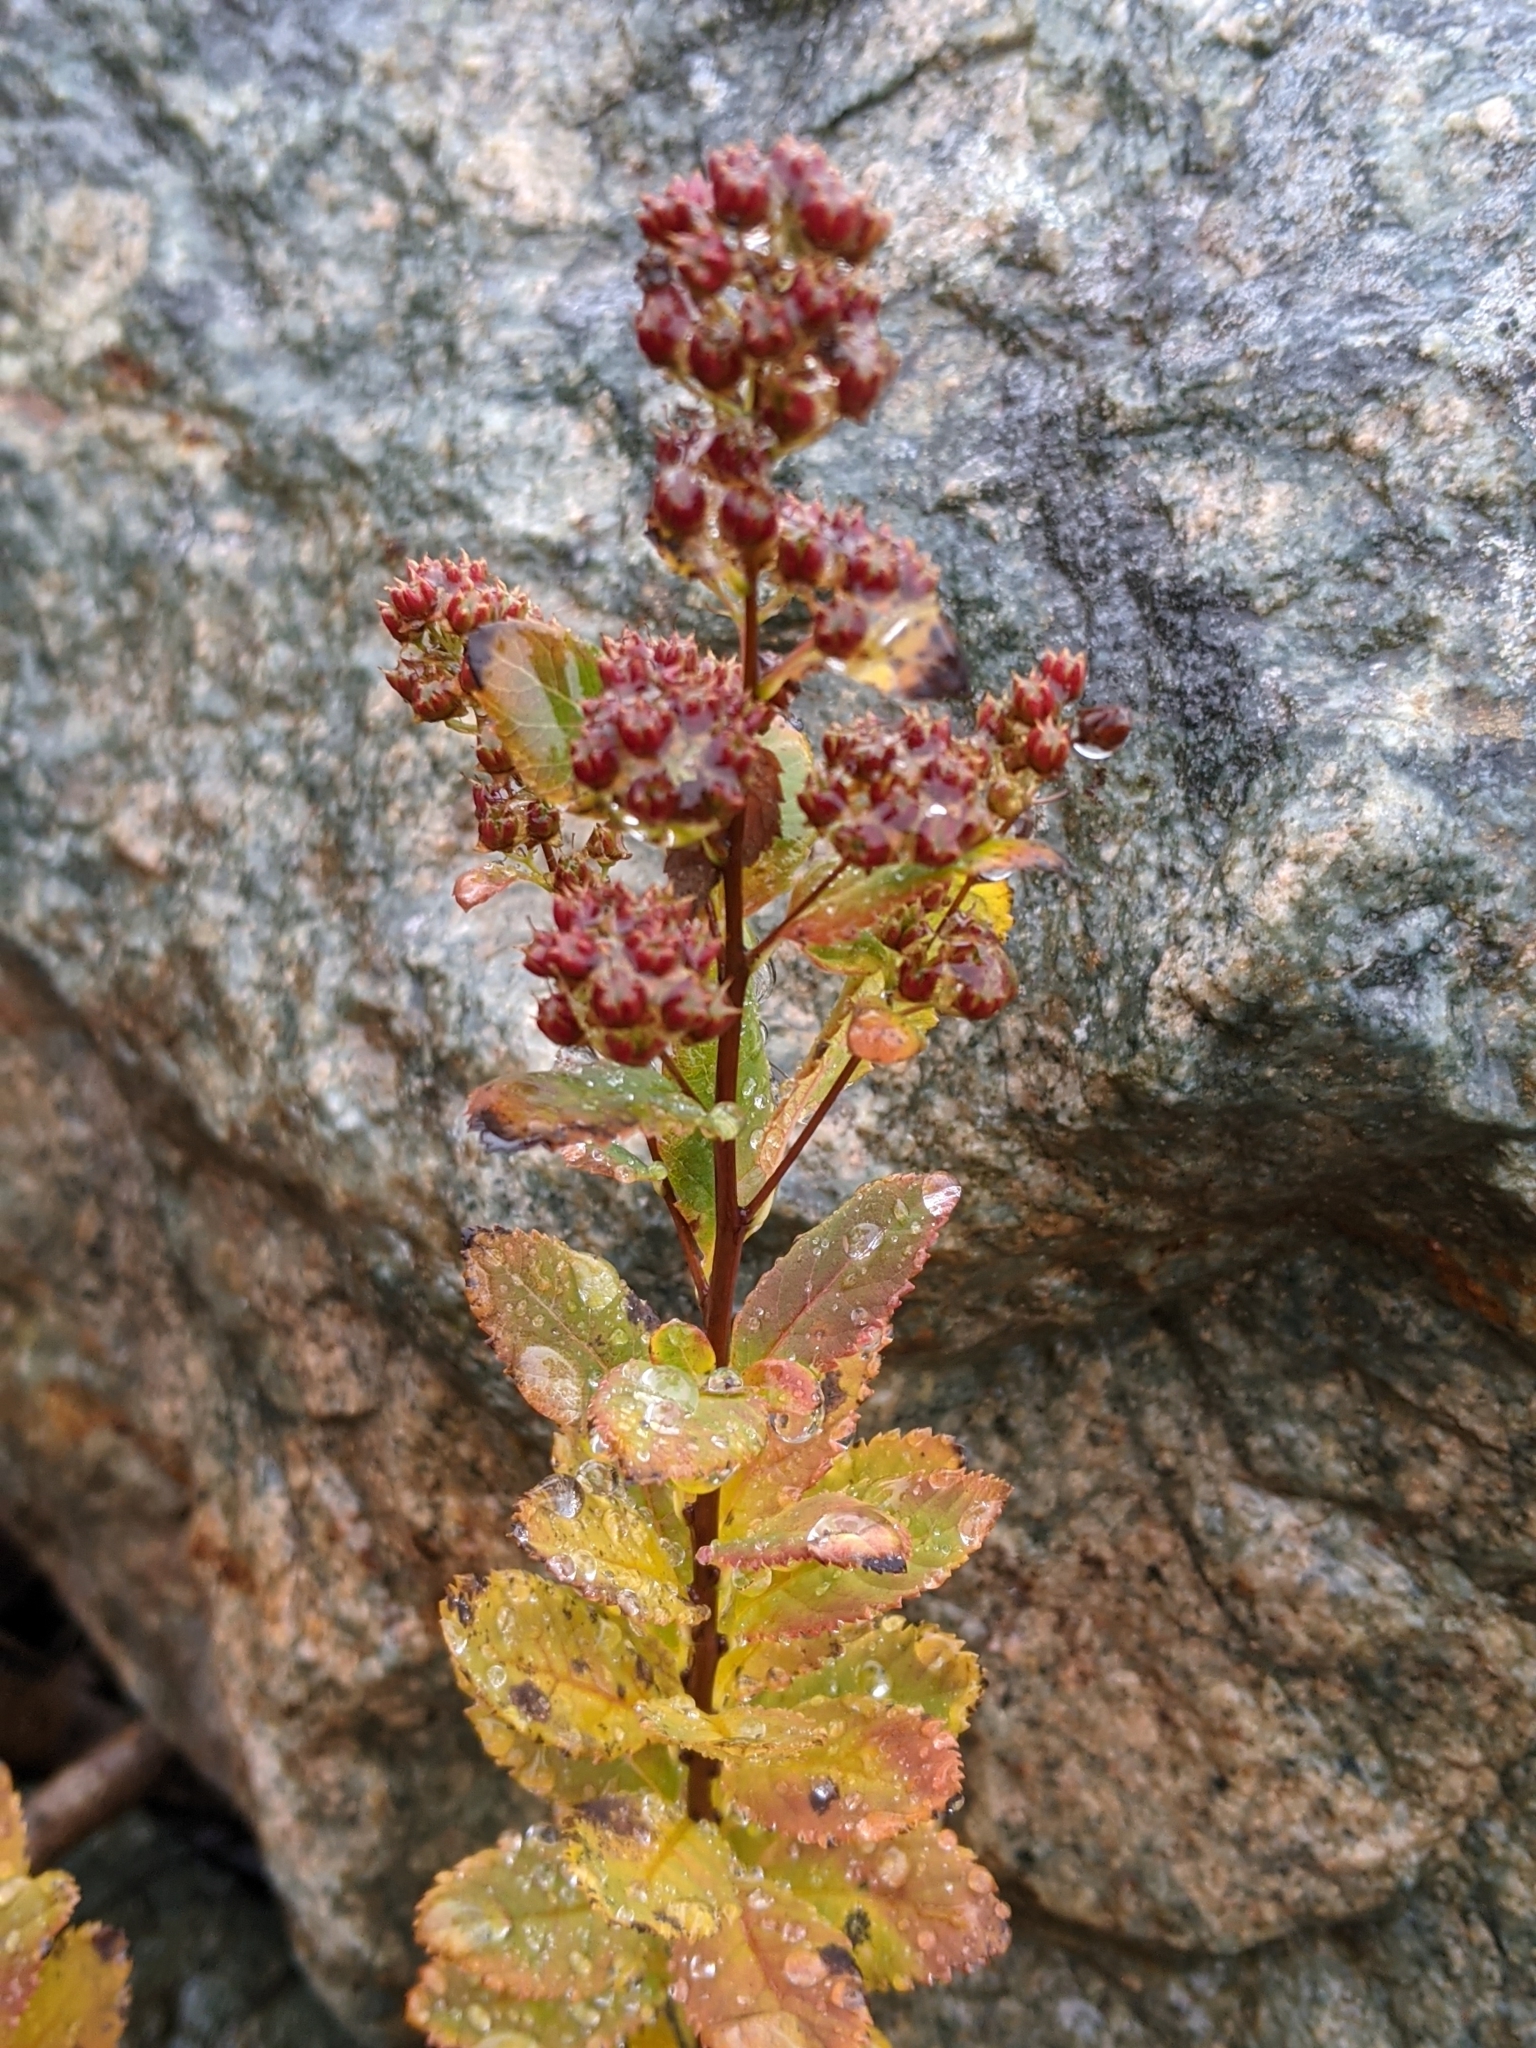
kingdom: Plantae
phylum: Tracheophyta
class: Magnoliopsida
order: Rosales
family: Rosaceae
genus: Spiraea
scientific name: Spiraea alba
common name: Pale bridewort
